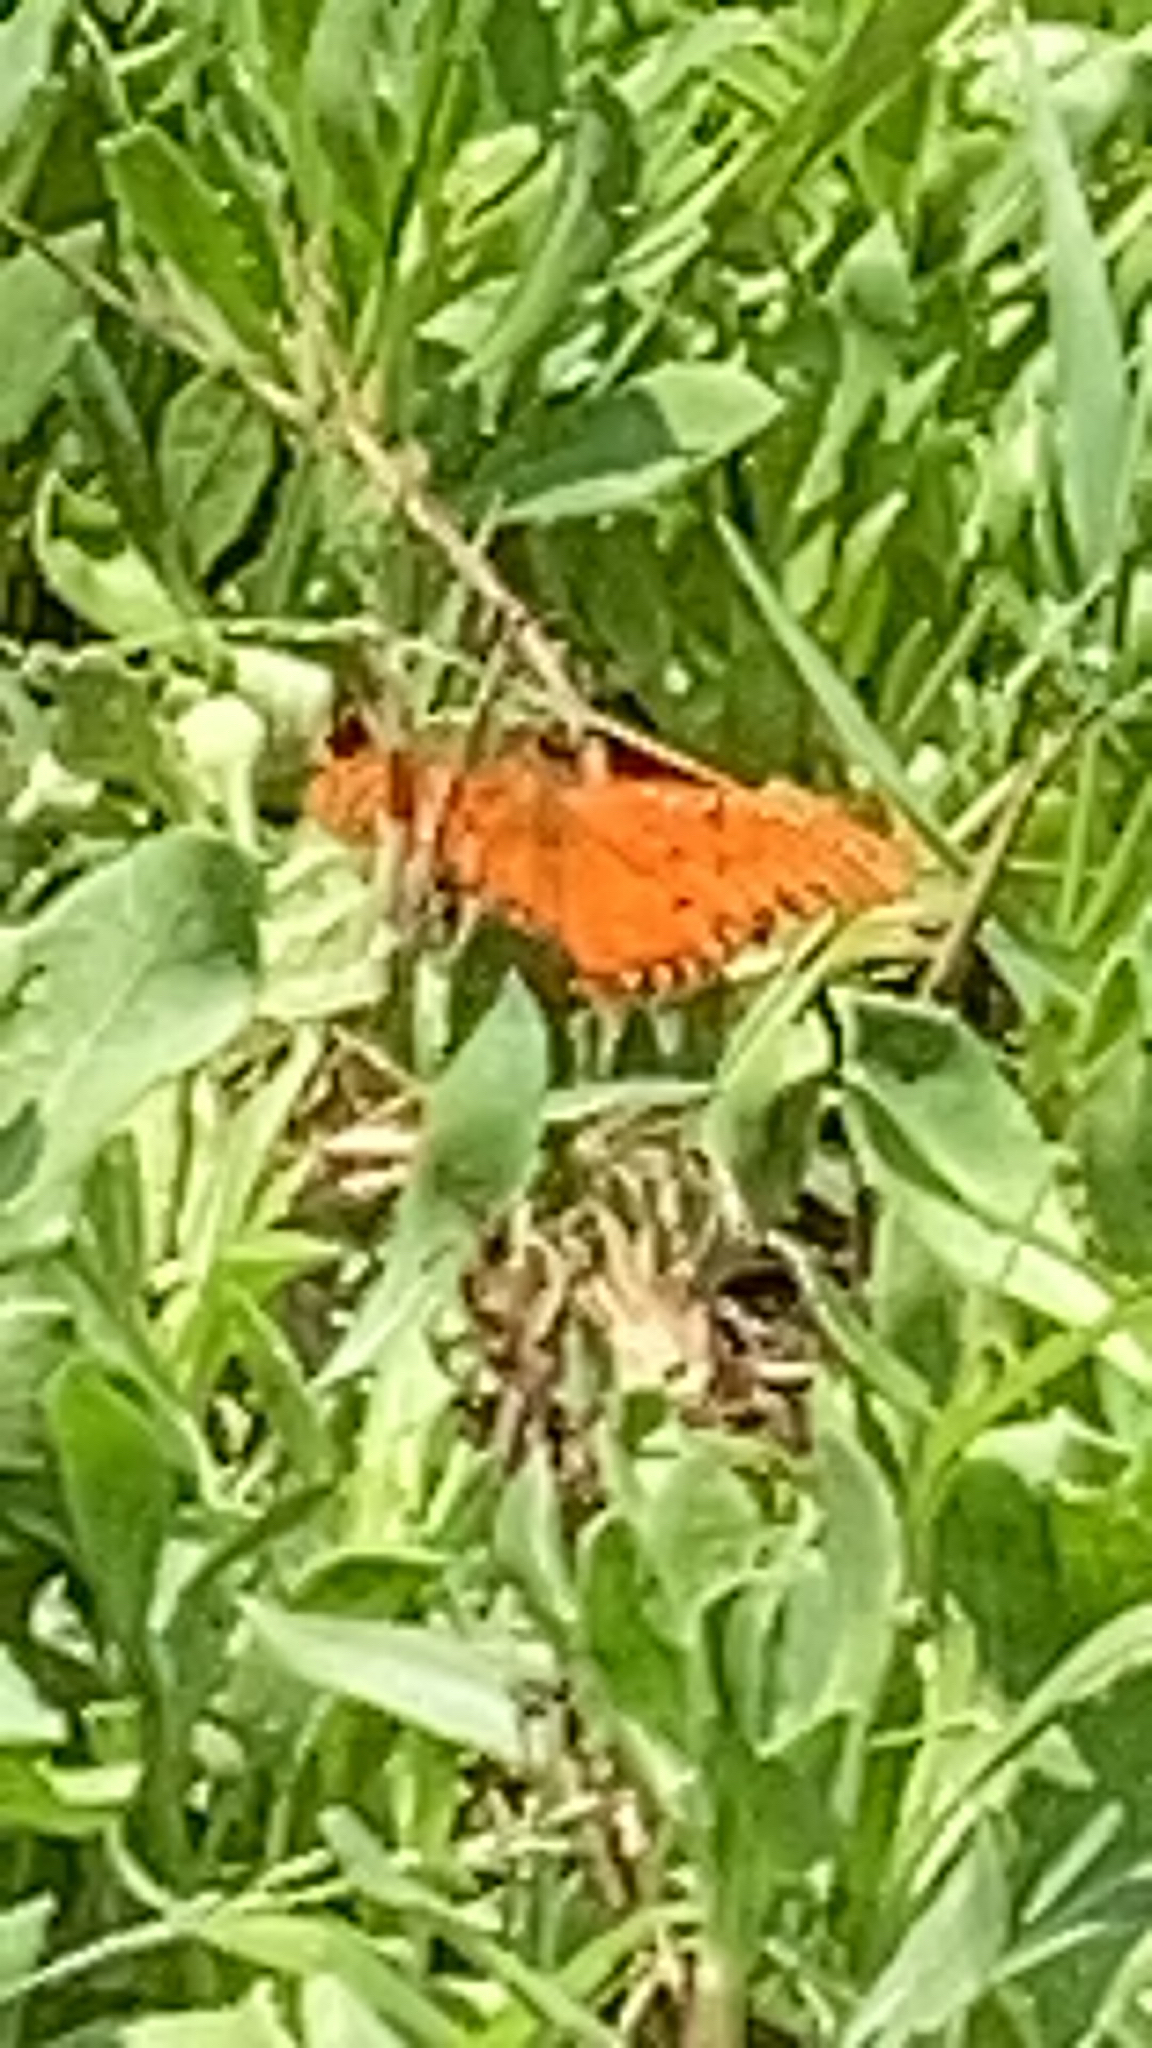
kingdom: Animalia
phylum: Arthropoda
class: Insecta
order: Lepidoptera
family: Nymphalidae
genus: Dione
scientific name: Dione vanillae
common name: Gulf fritillary
